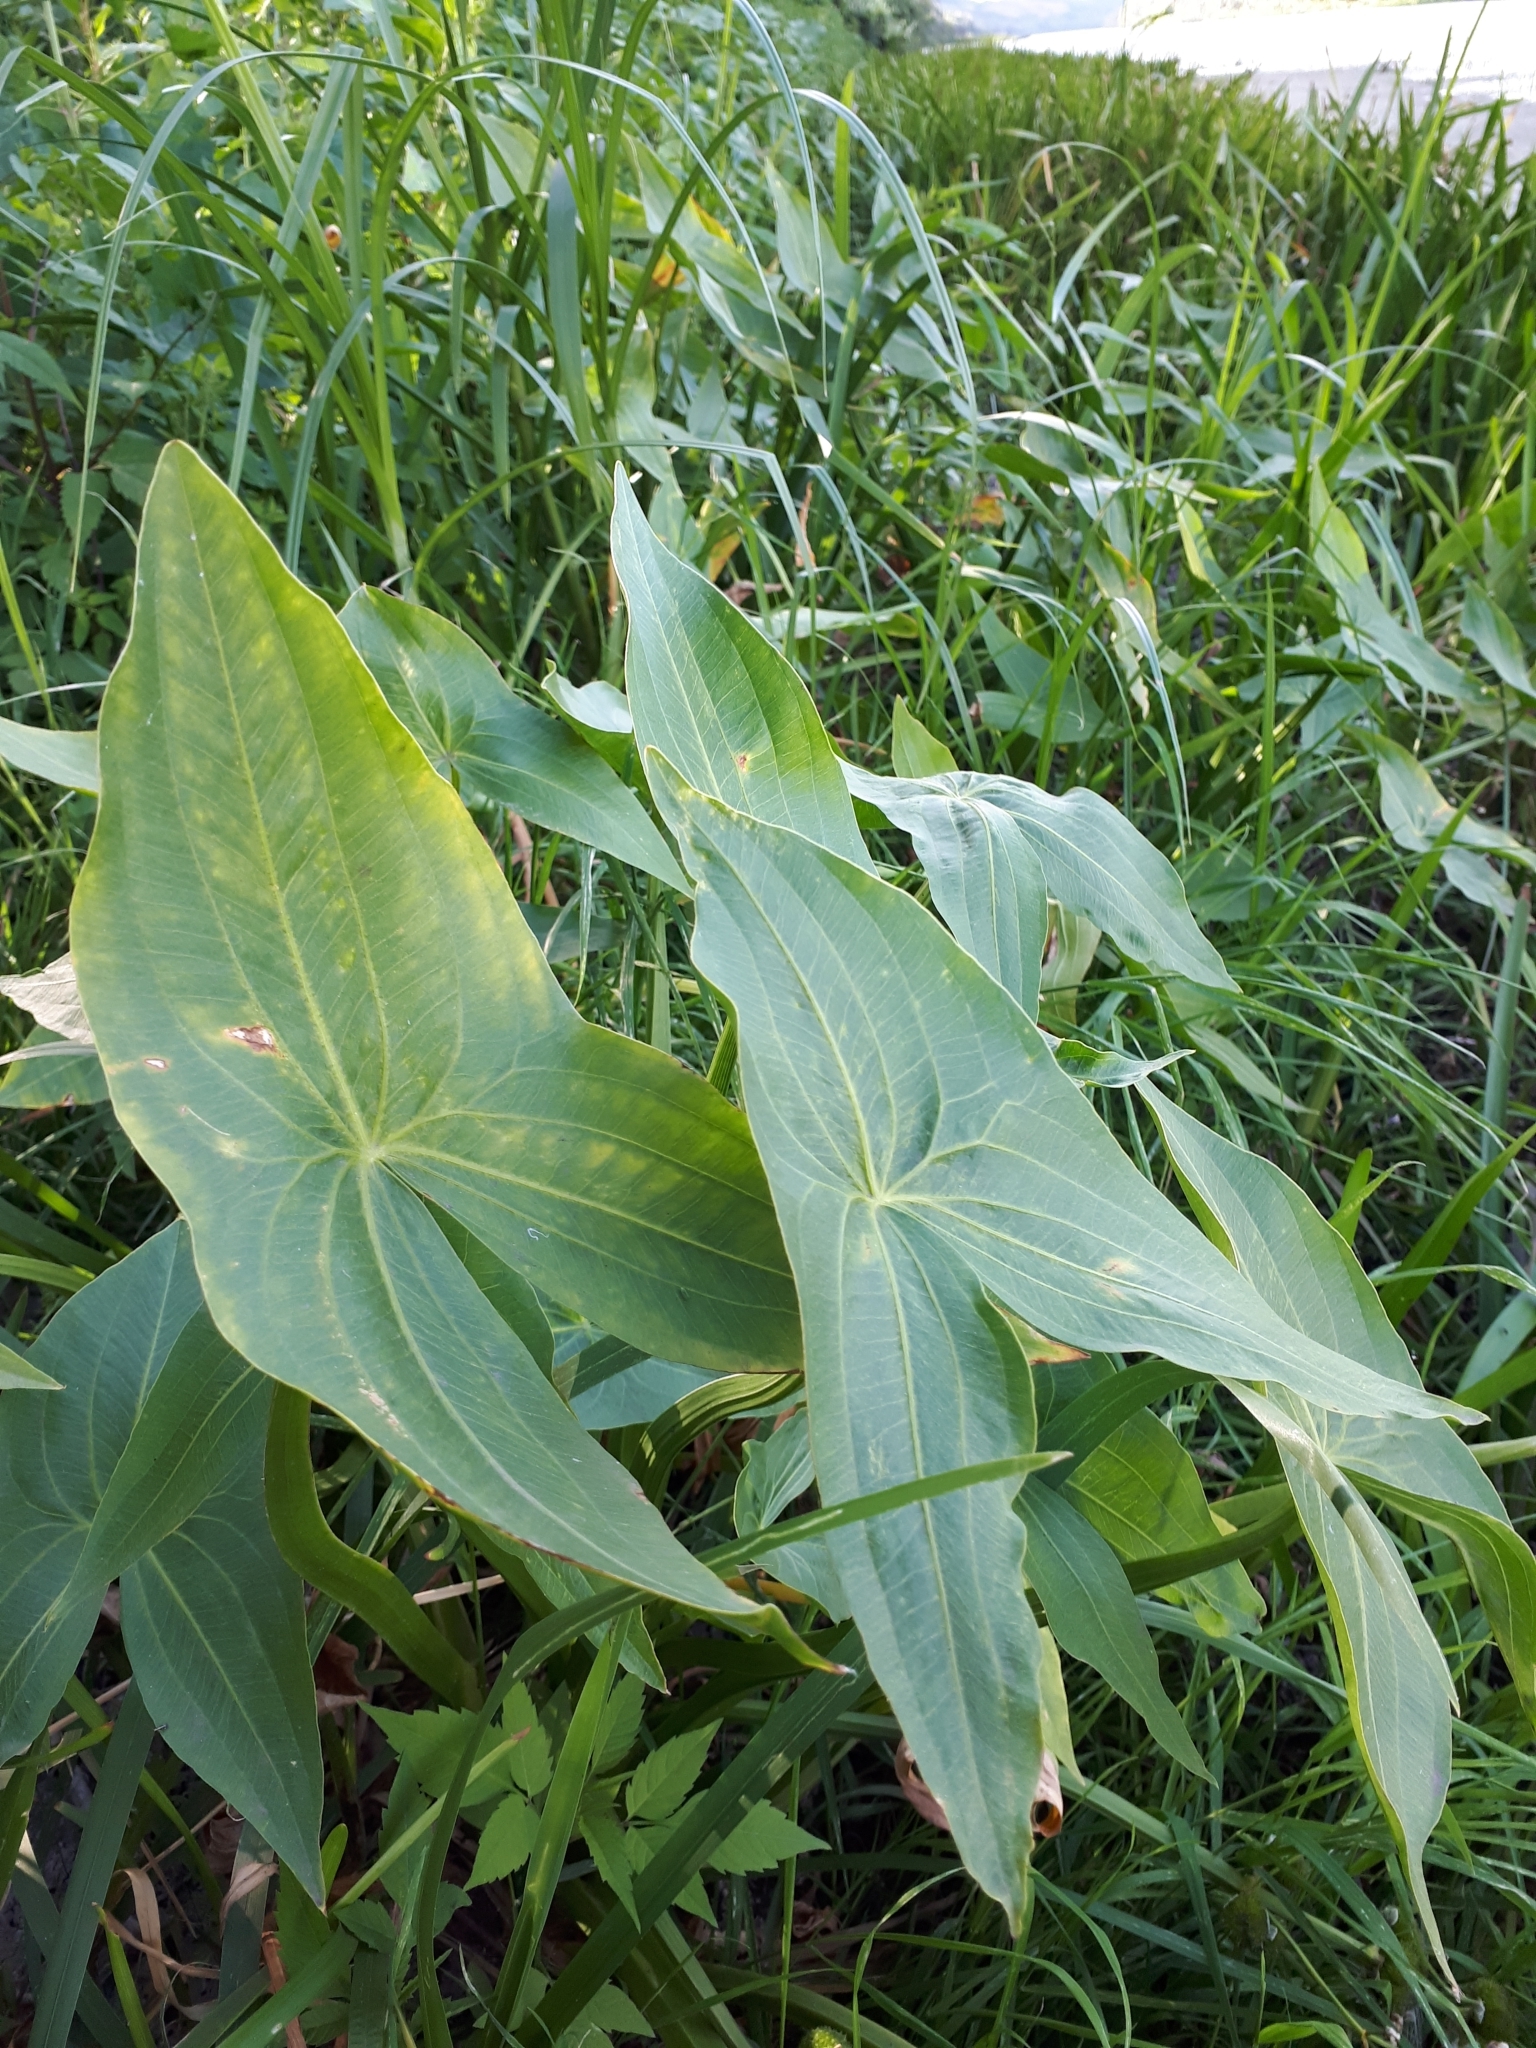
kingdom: Plantae
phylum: Tracheophyta
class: Liliopsida
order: Alismatales
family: Alismataceae
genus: Sagittaria
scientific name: Sagittaria sagittifolia
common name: Arrowhead
